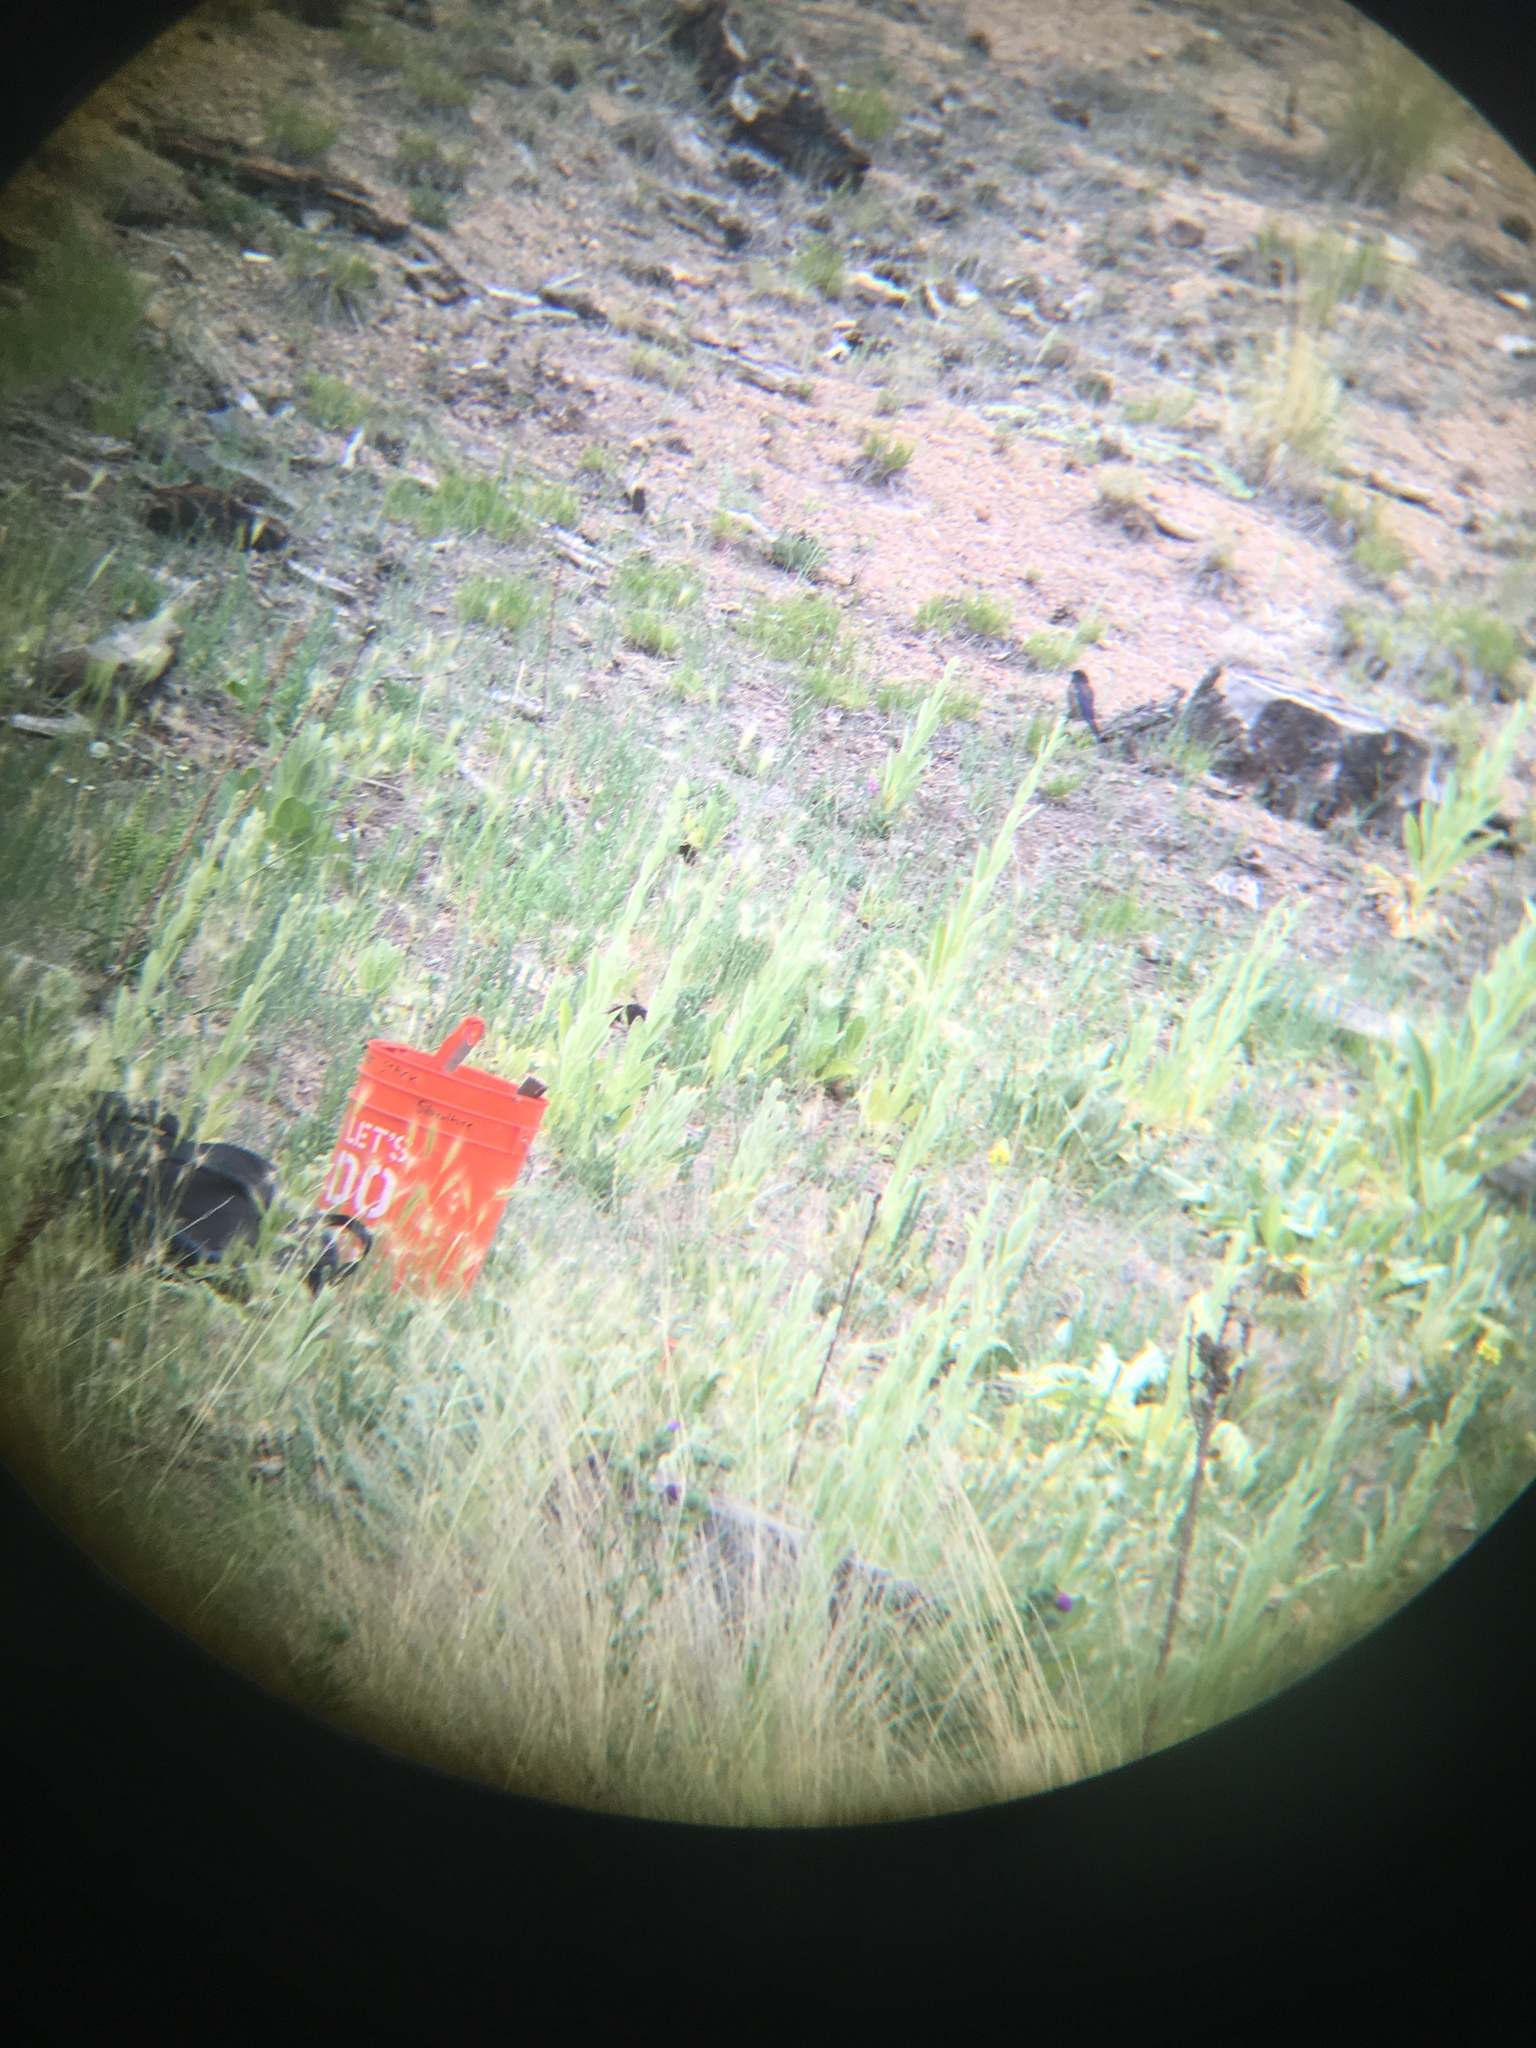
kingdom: Animalia
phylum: Chordata
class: Aves
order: Passeriformes
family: Turdidae
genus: Sialia
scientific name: Sialia mexicana
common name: Western bluebird
